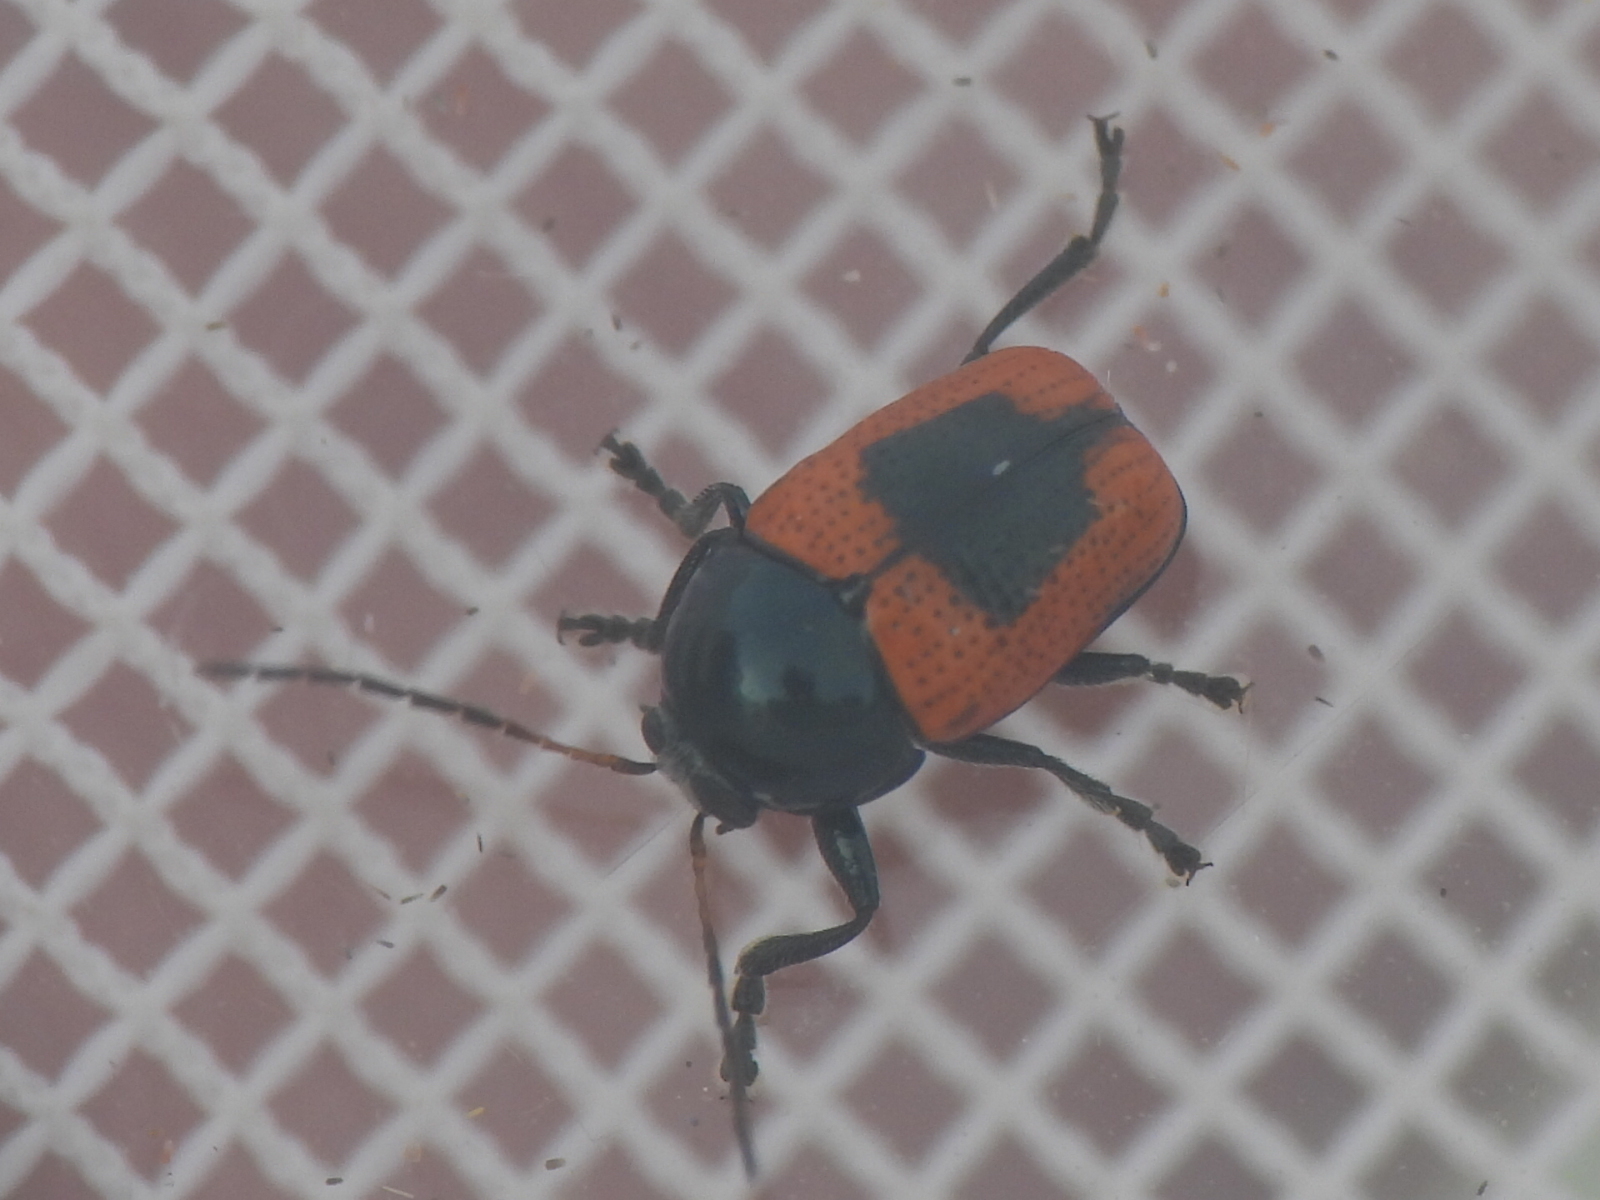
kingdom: Animalia
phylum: Arthropoda
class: Insecta
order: Coleoptera
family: Chrysomelidae
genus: Cryptocephalus
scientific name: Cryptocephalus notatus
